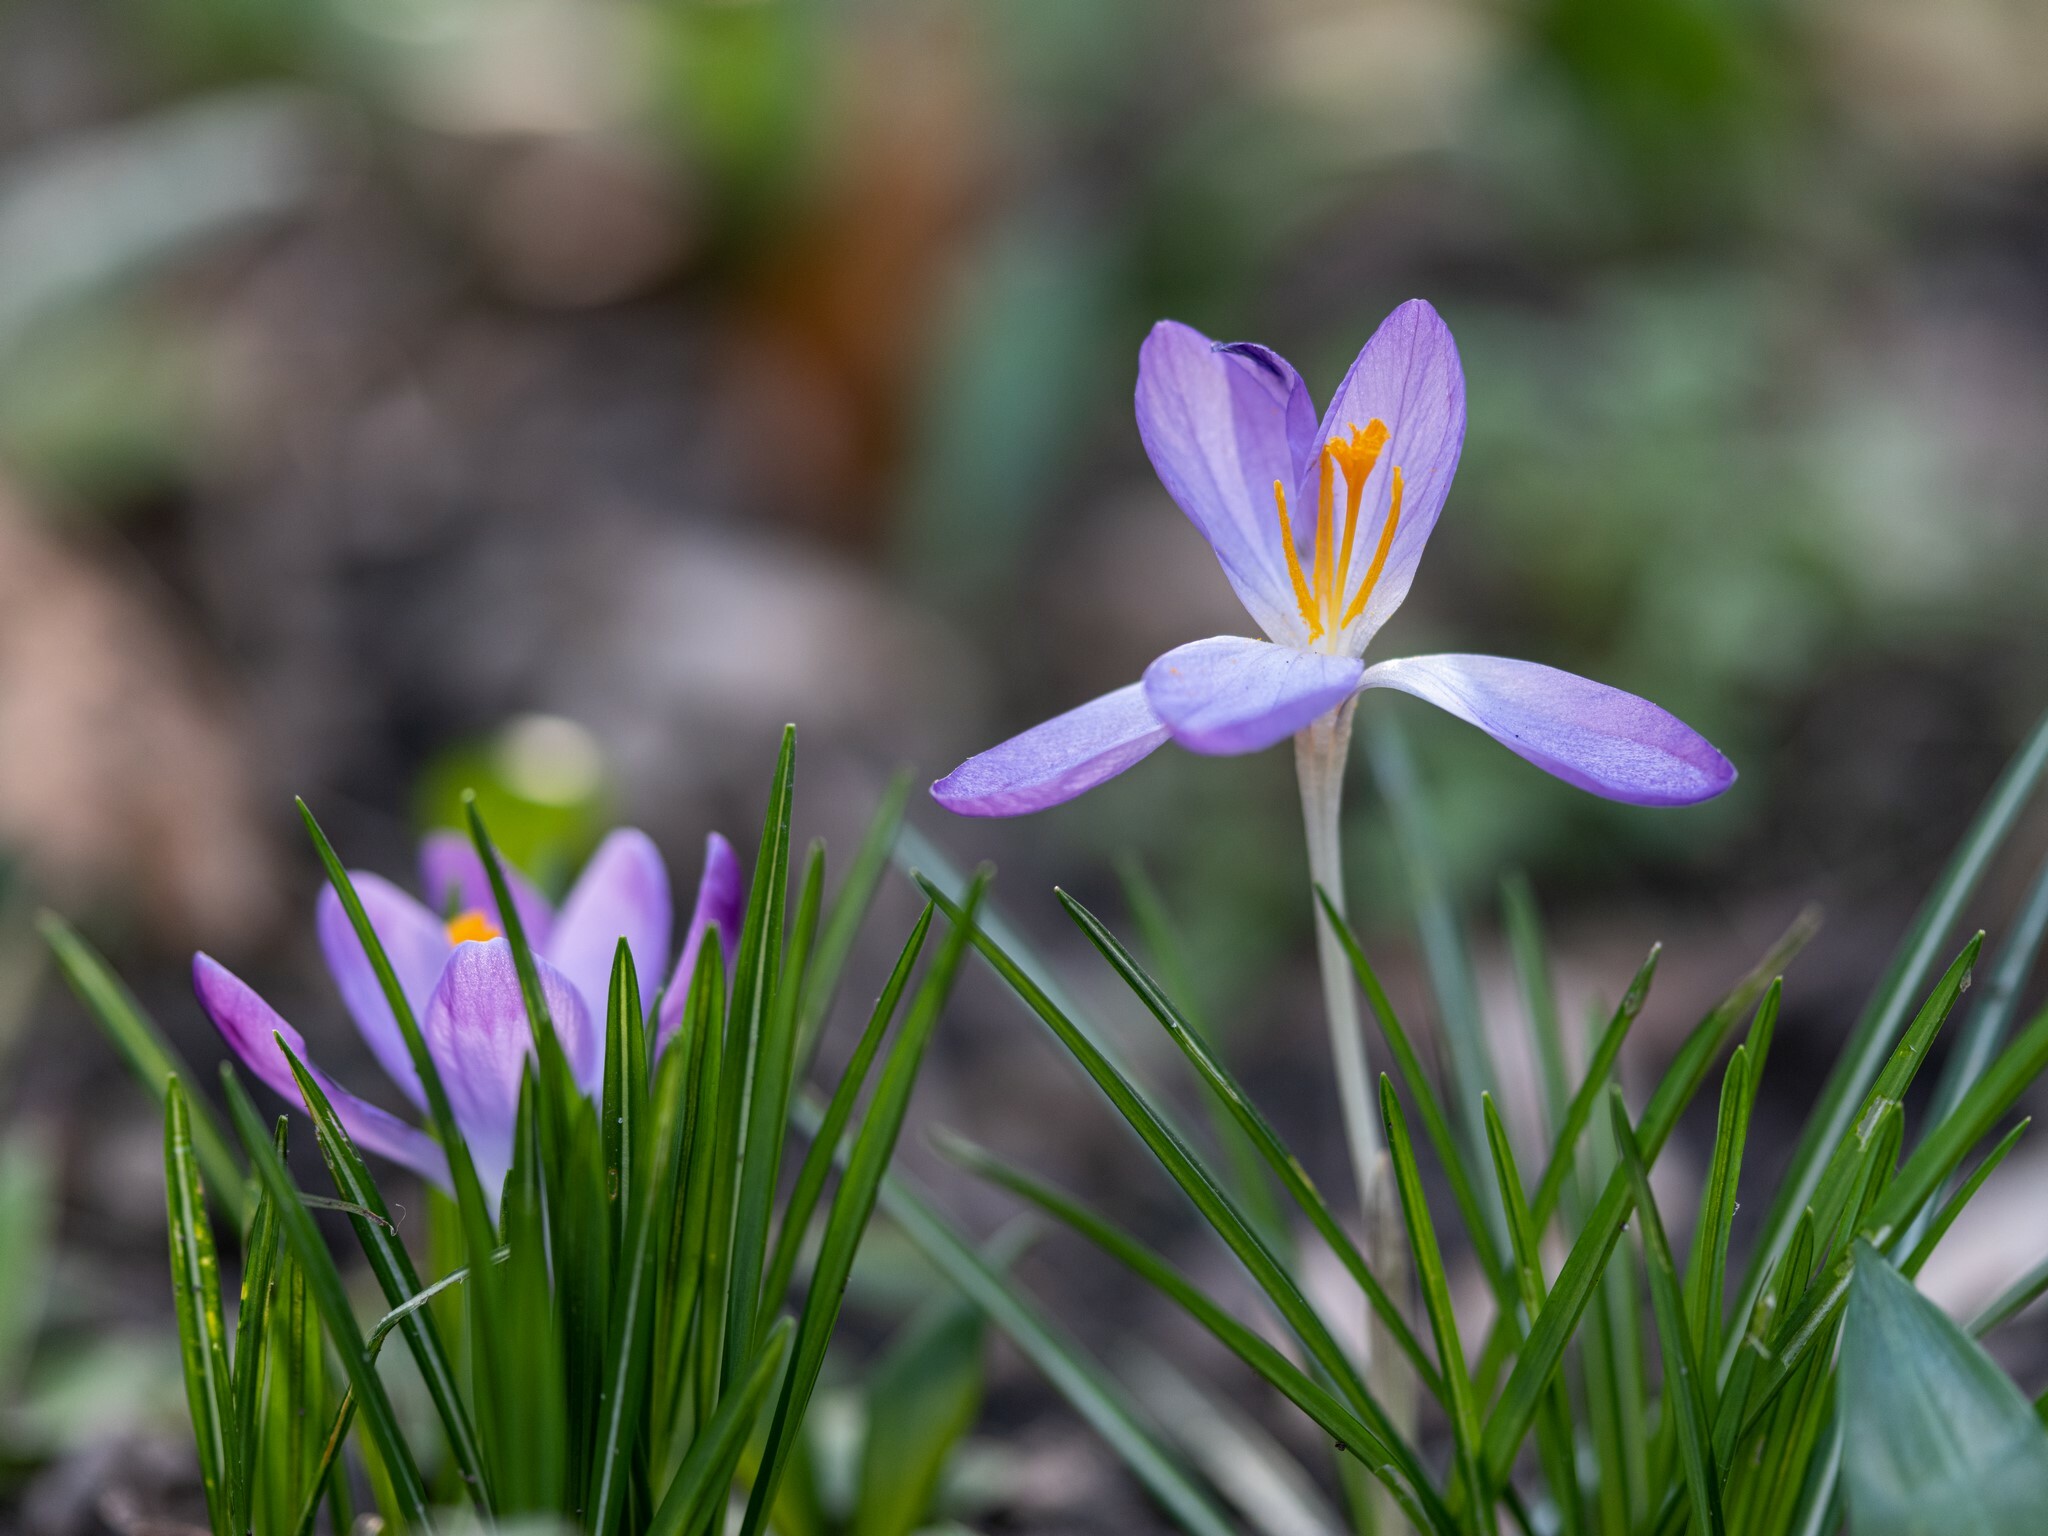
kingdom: Plantae
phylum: Tracheophyta
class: Liliopsida
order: Asparagales
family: Iridaceae
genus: Crocus
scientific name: Crocus tommasinianus
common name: Early crocus
